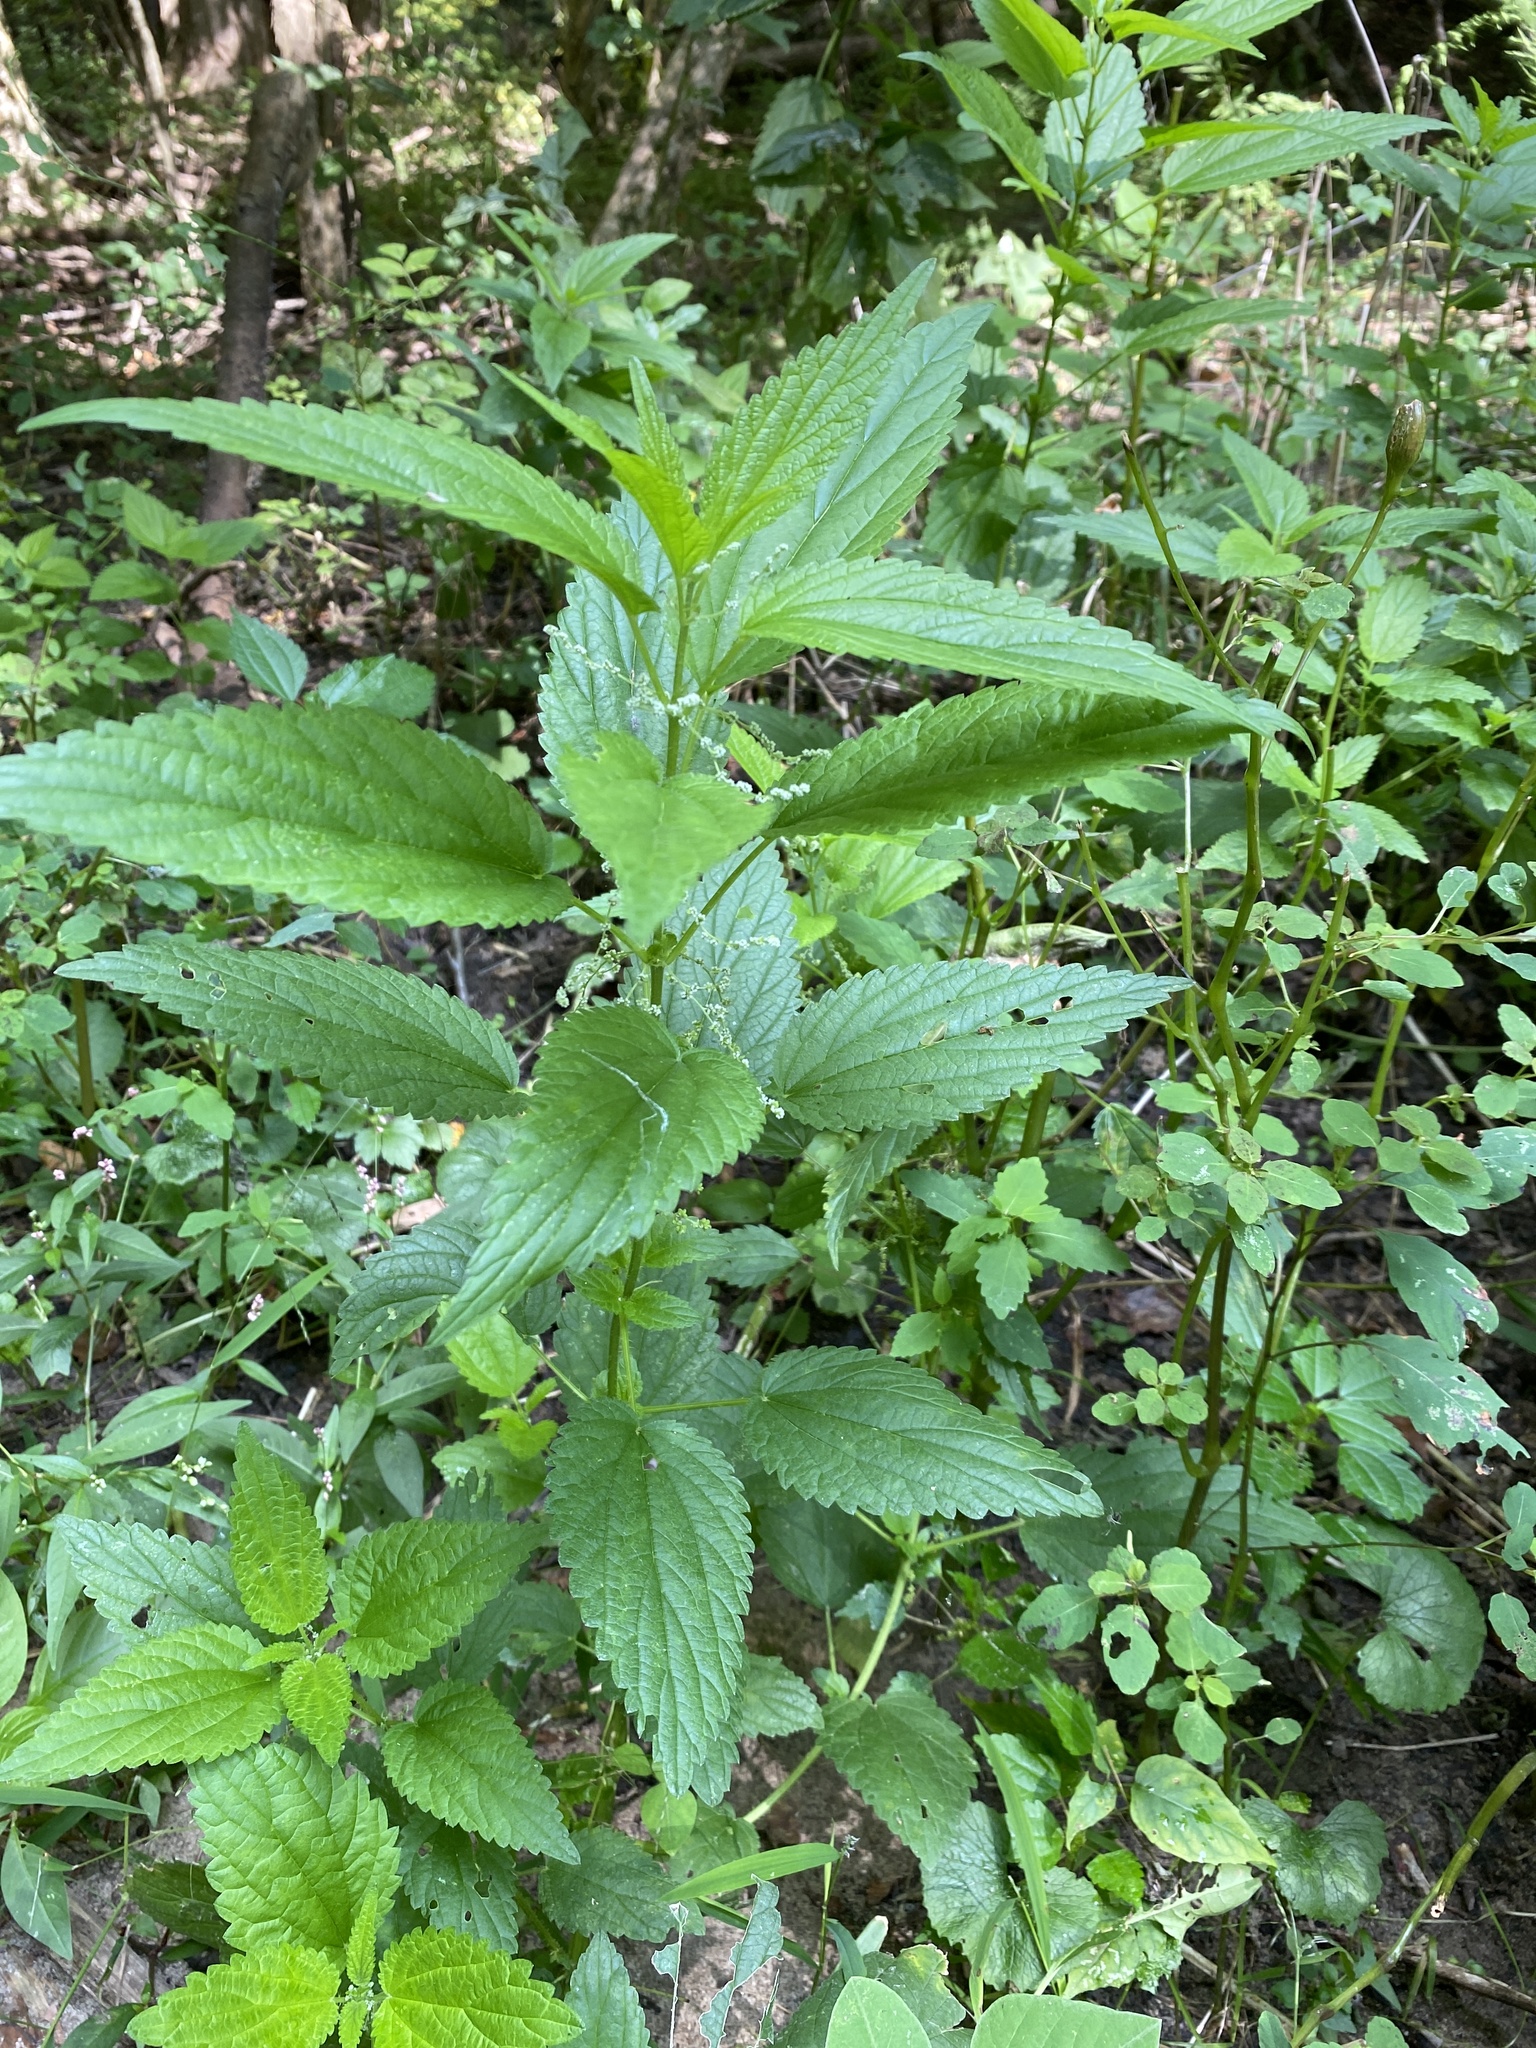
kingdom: Plantae
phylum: Tracheophyta
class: Magnoliopsida
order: Rosales
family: Urticaceae
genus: Urtica
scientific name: Urtica dioica
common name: Common nettle
